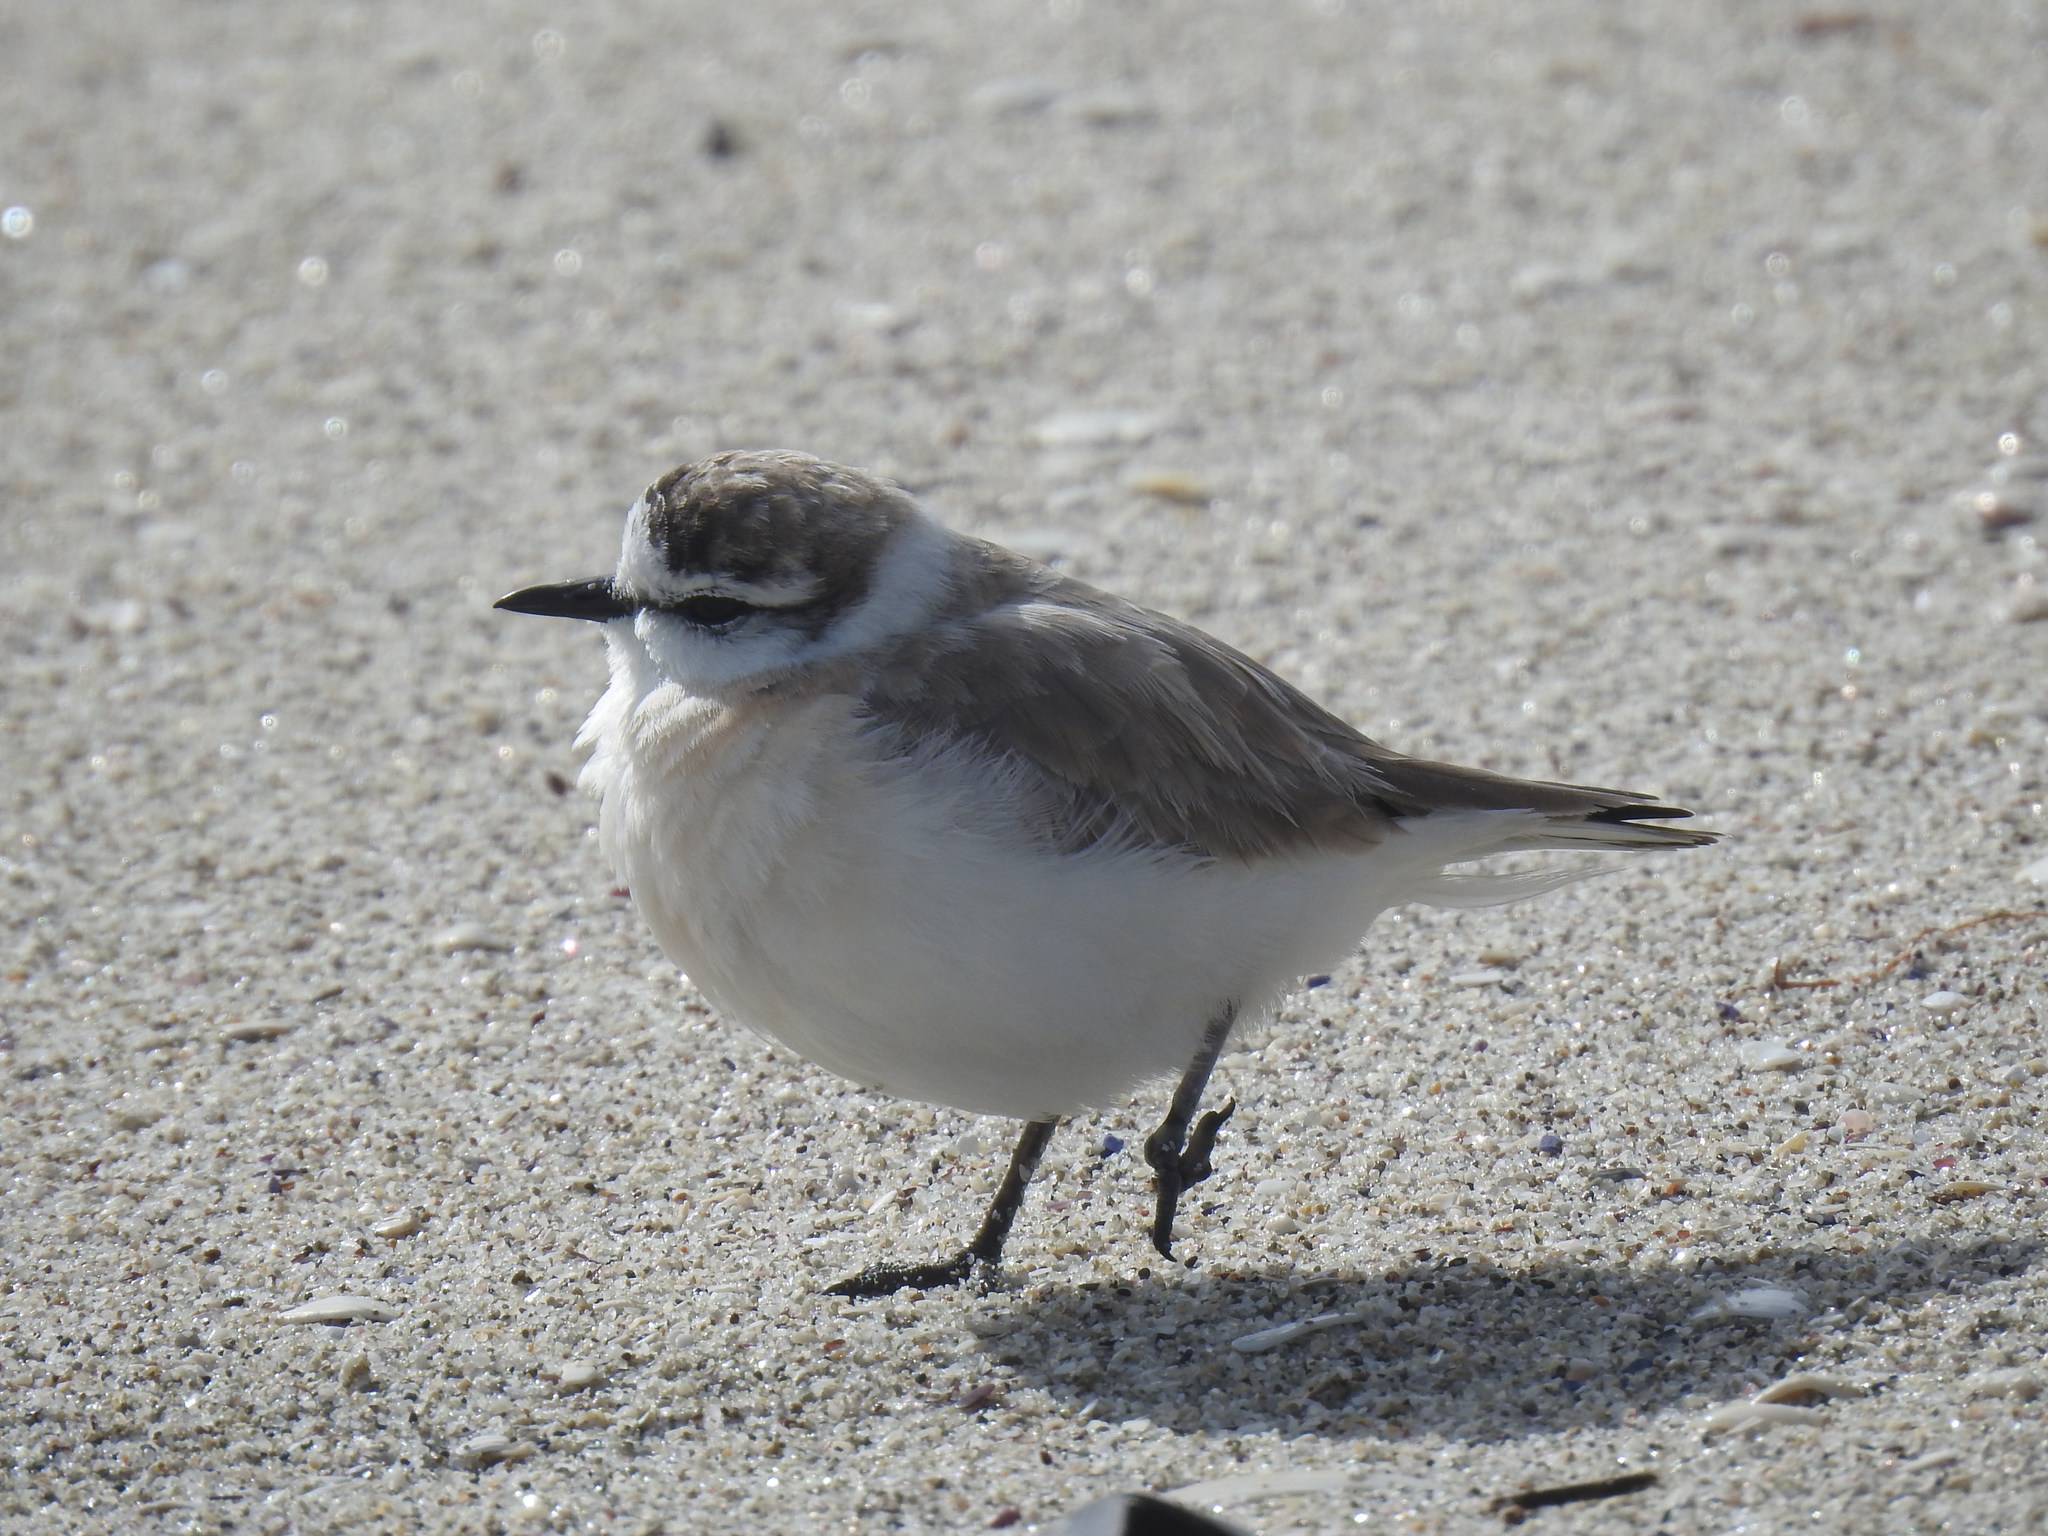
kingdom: Animalia
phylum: Chordata
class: Aves
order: Charadriiformes
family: Charadriidae
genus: Anarhynchus
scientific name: Anarhynchus
